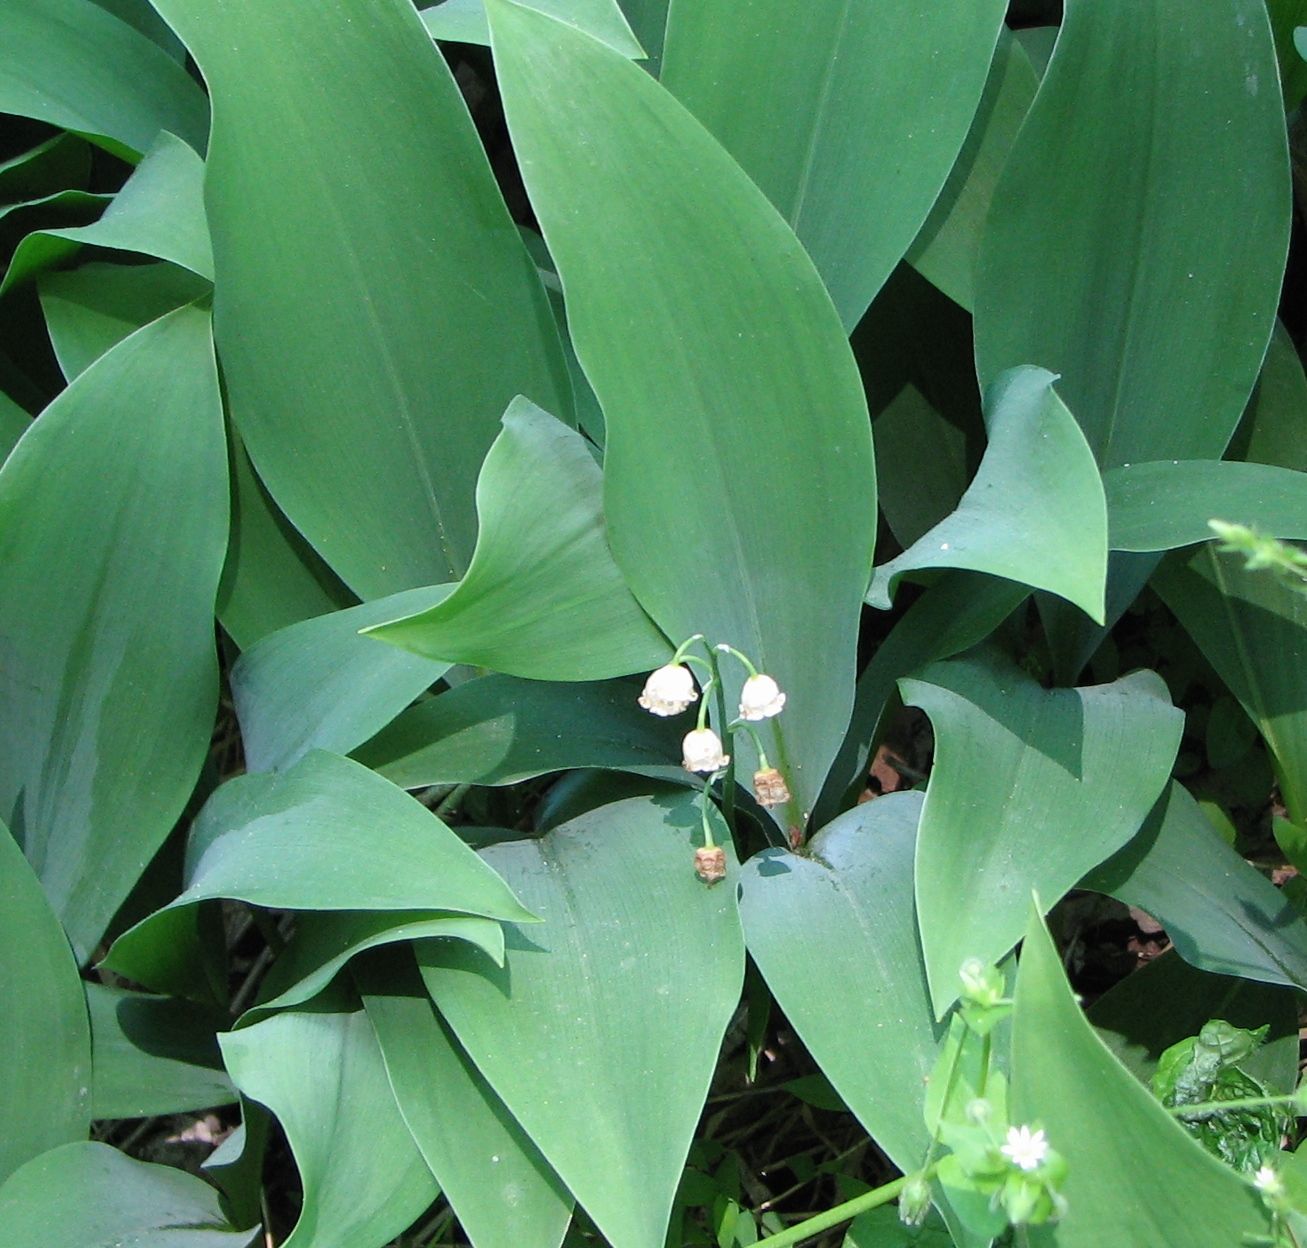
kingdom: Plantae
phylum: Tracheophyta
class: Liliopsida
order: Asparagales
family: Asparagaceae
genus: Convallaria
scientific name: Convallaria majalis
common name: Lily-of-the-valley
